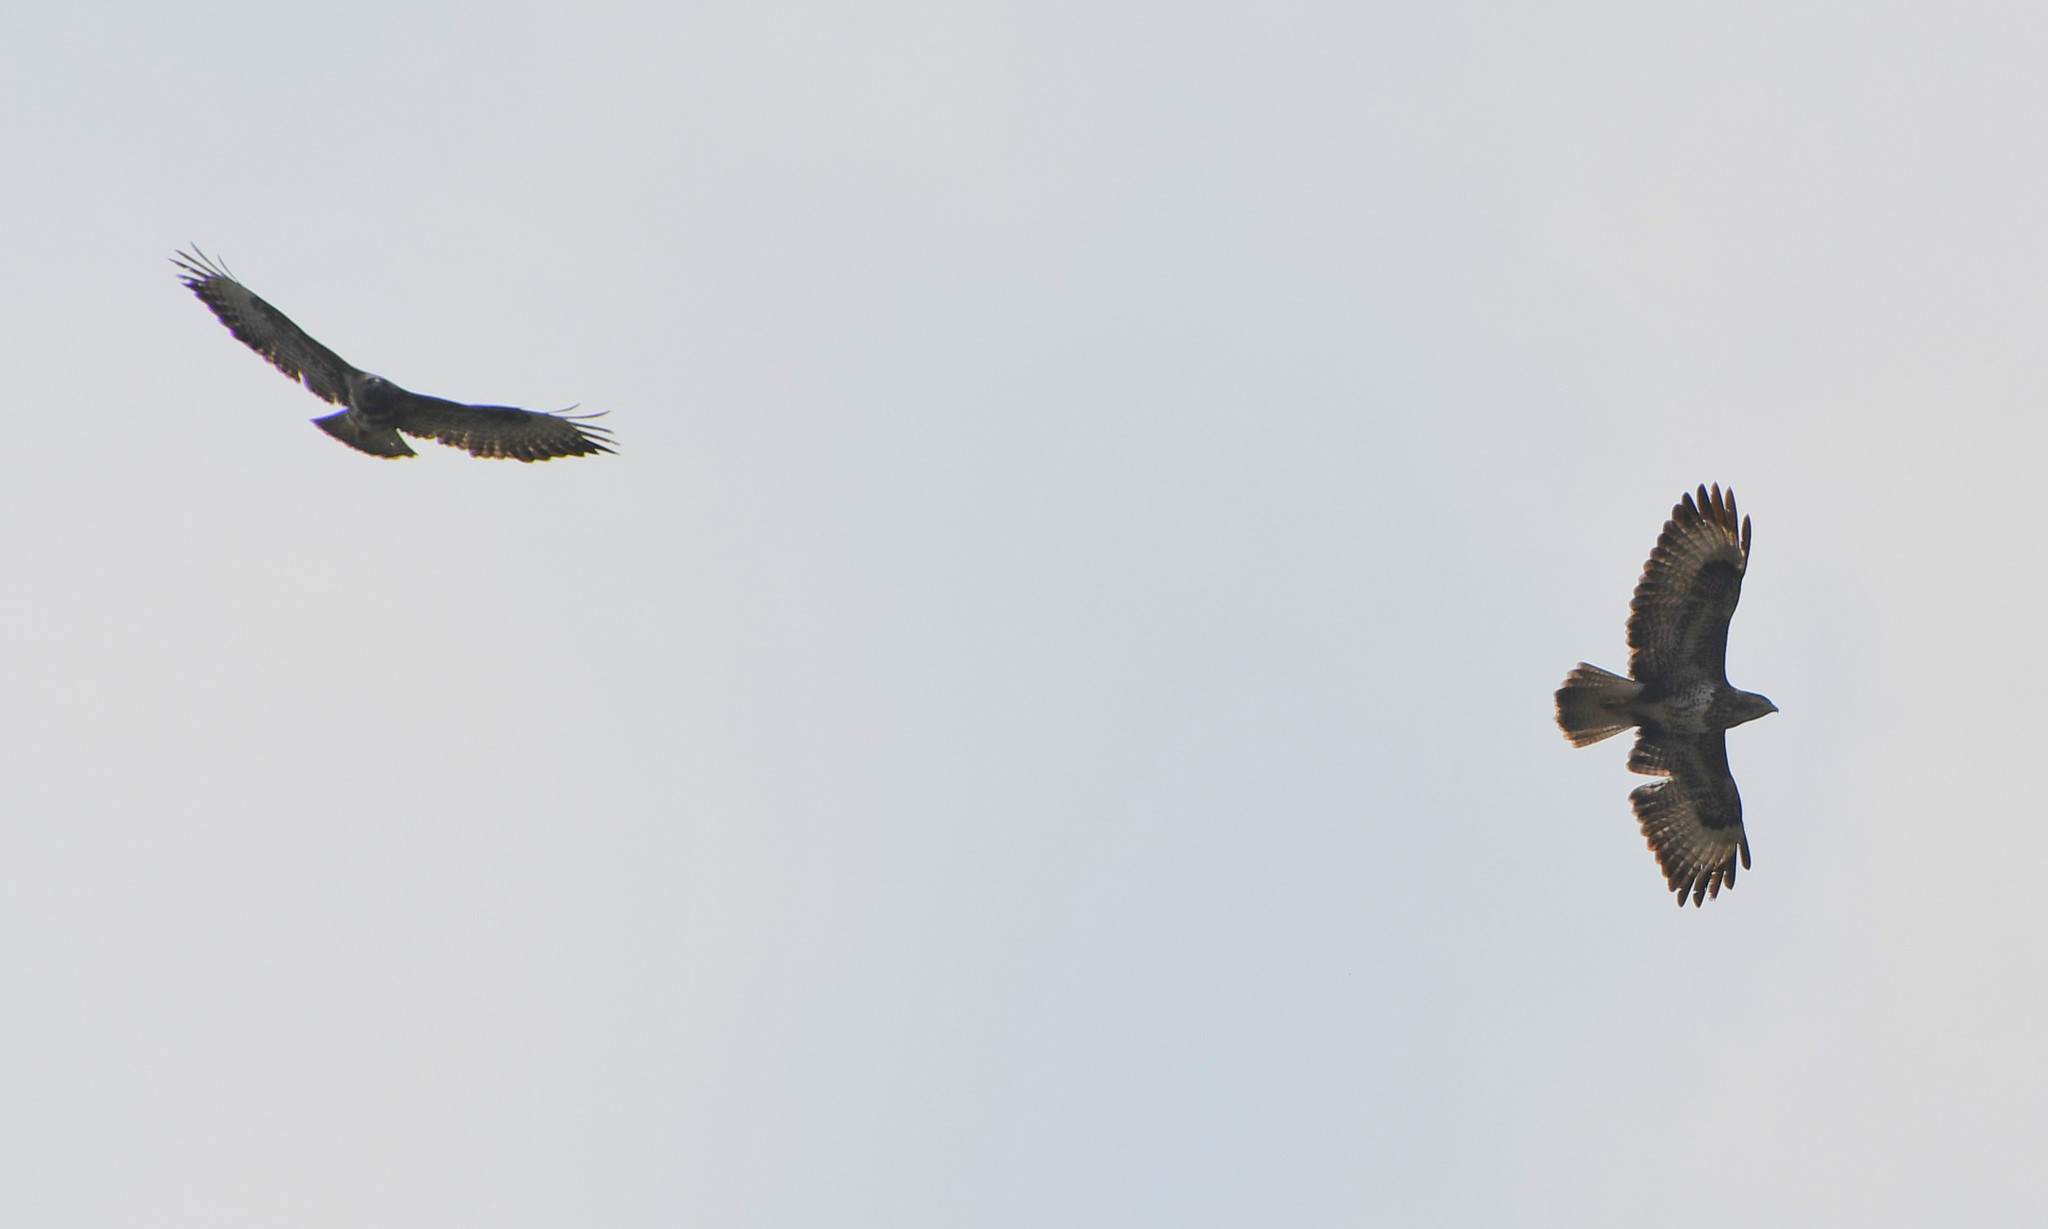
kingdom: Animalia
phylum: Chordata
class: Aves
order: Accipitriformes
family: Accipitridae
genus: Buteo
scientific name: Buteo buteo
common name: Common buzzard
